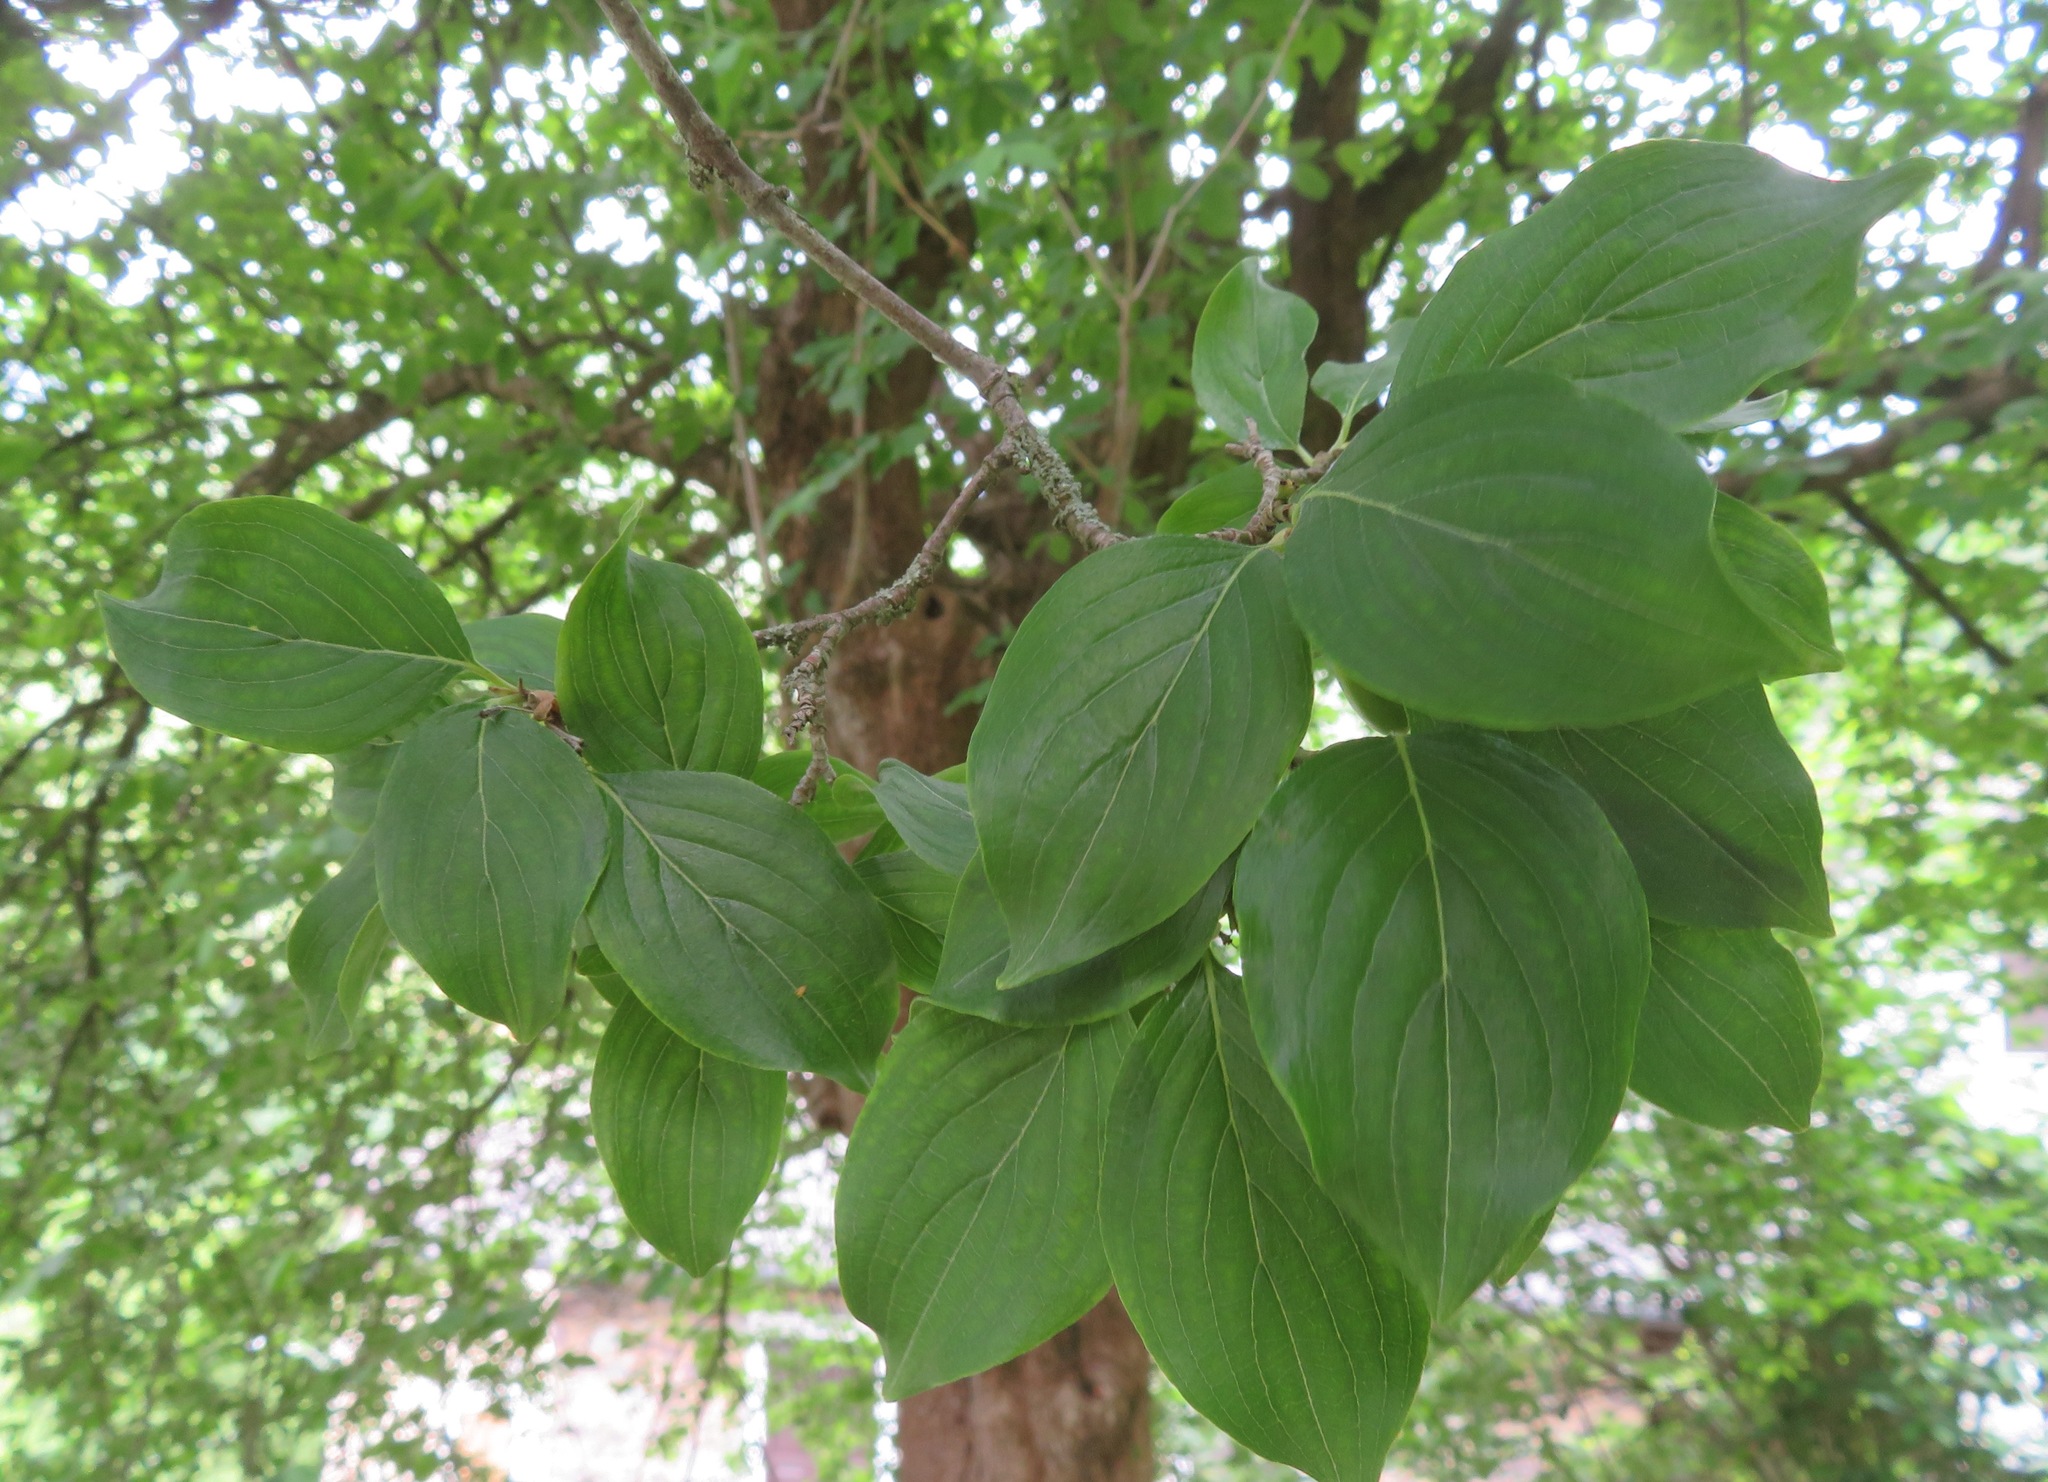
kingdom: Plantae
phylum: Tracheophyta
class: Magnoliopsida
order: Cornales
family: Cornaceae
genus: Cornus
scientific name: Cornus mas
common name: Cornelian-cherry
